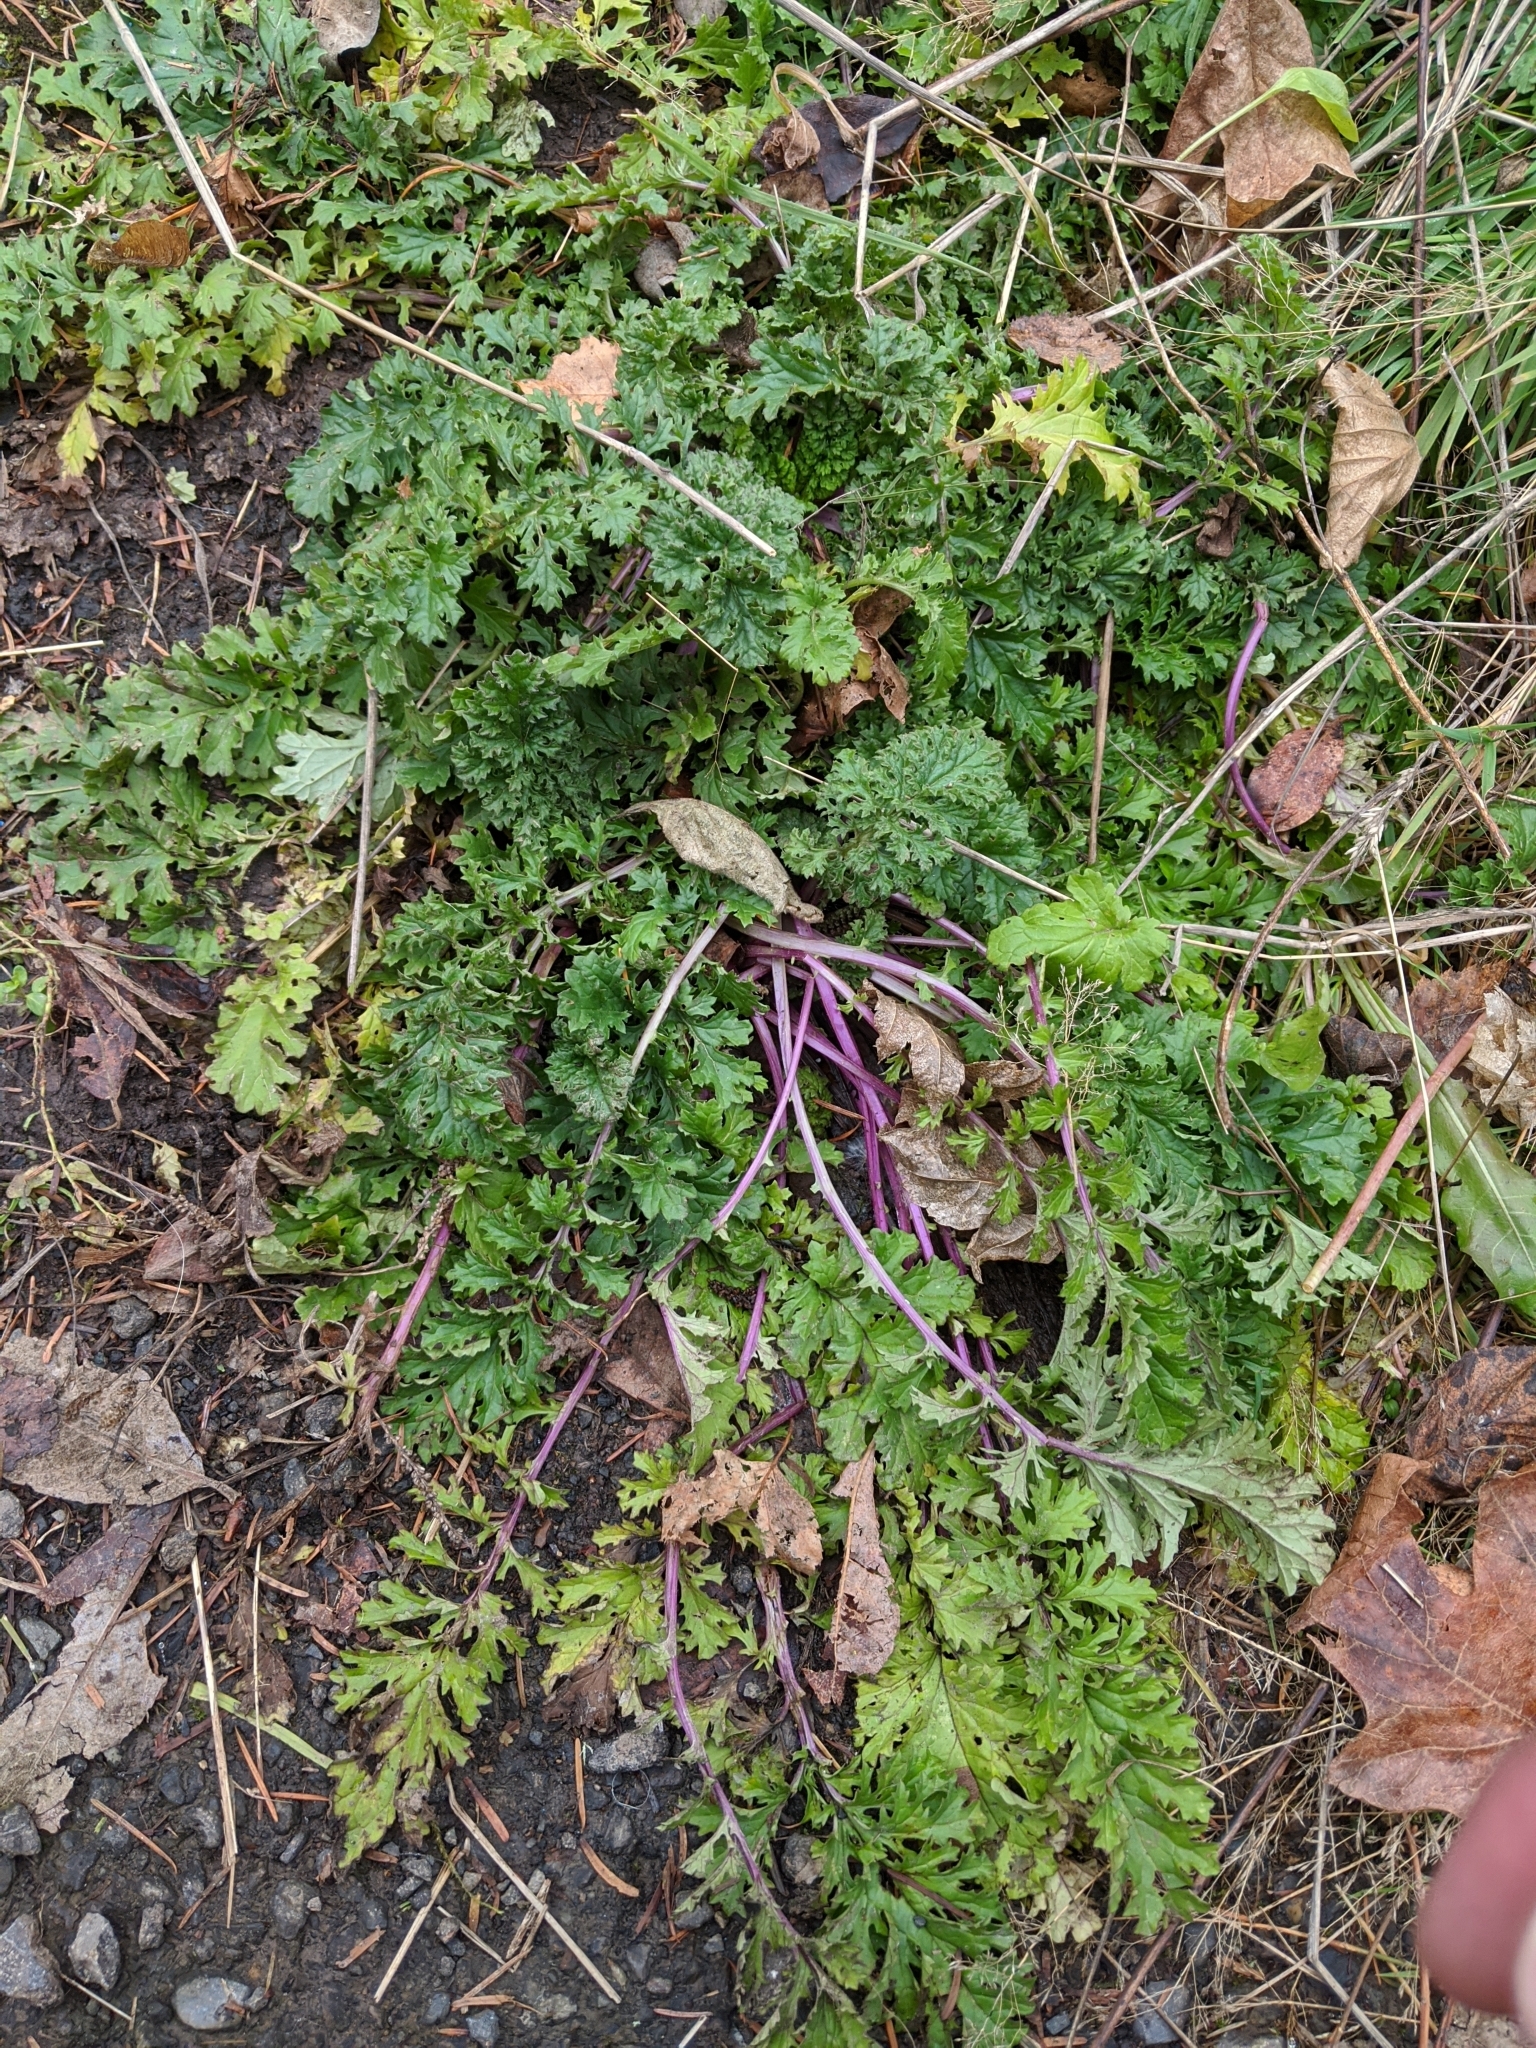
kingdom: Plantae
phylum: Tracheophyta
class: Magnoliopsida
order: Asterales
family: Asteraceae
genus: Jacobaea
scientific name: Jacobaea vulgaris
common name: Stinking willie
